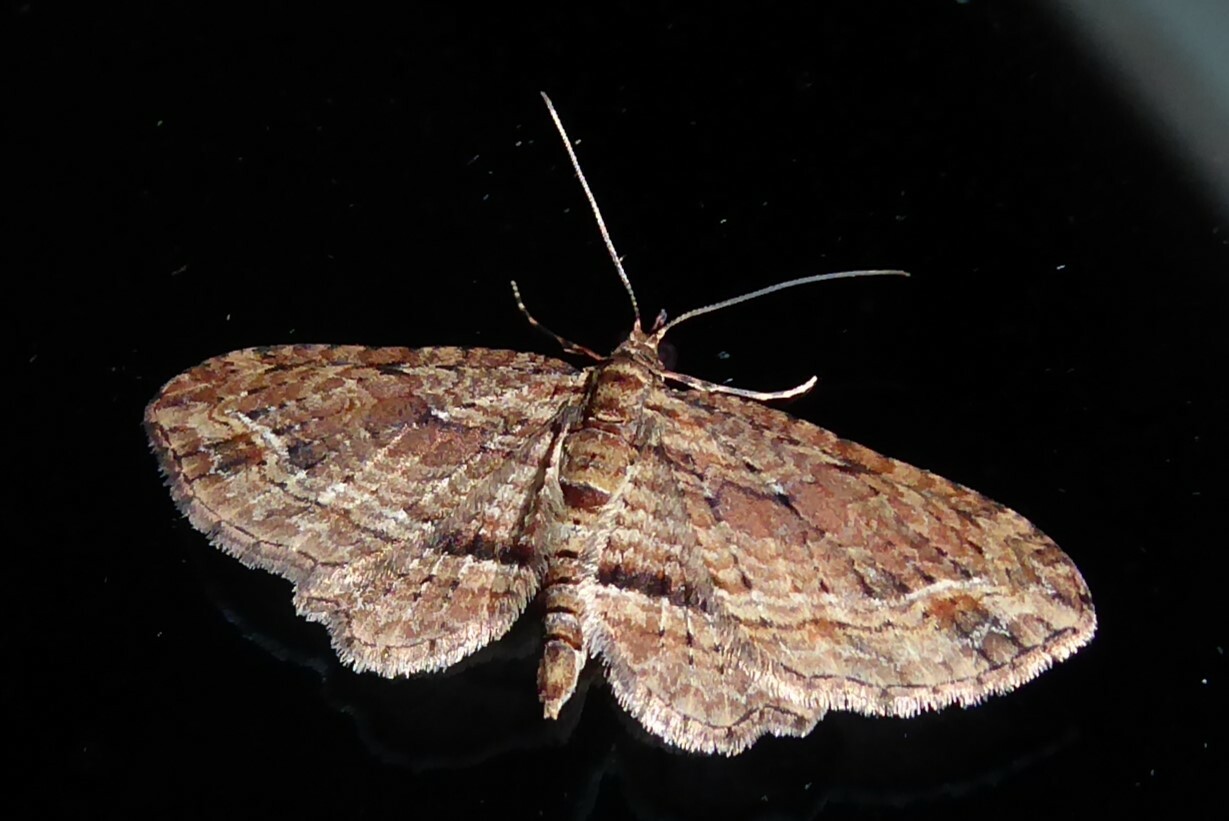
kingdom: Animalia
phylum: Arthropoda
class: Insecta
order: Lepidoptera
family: Geometridae
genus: Chloroclystis
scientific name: Chloroclystis filata
